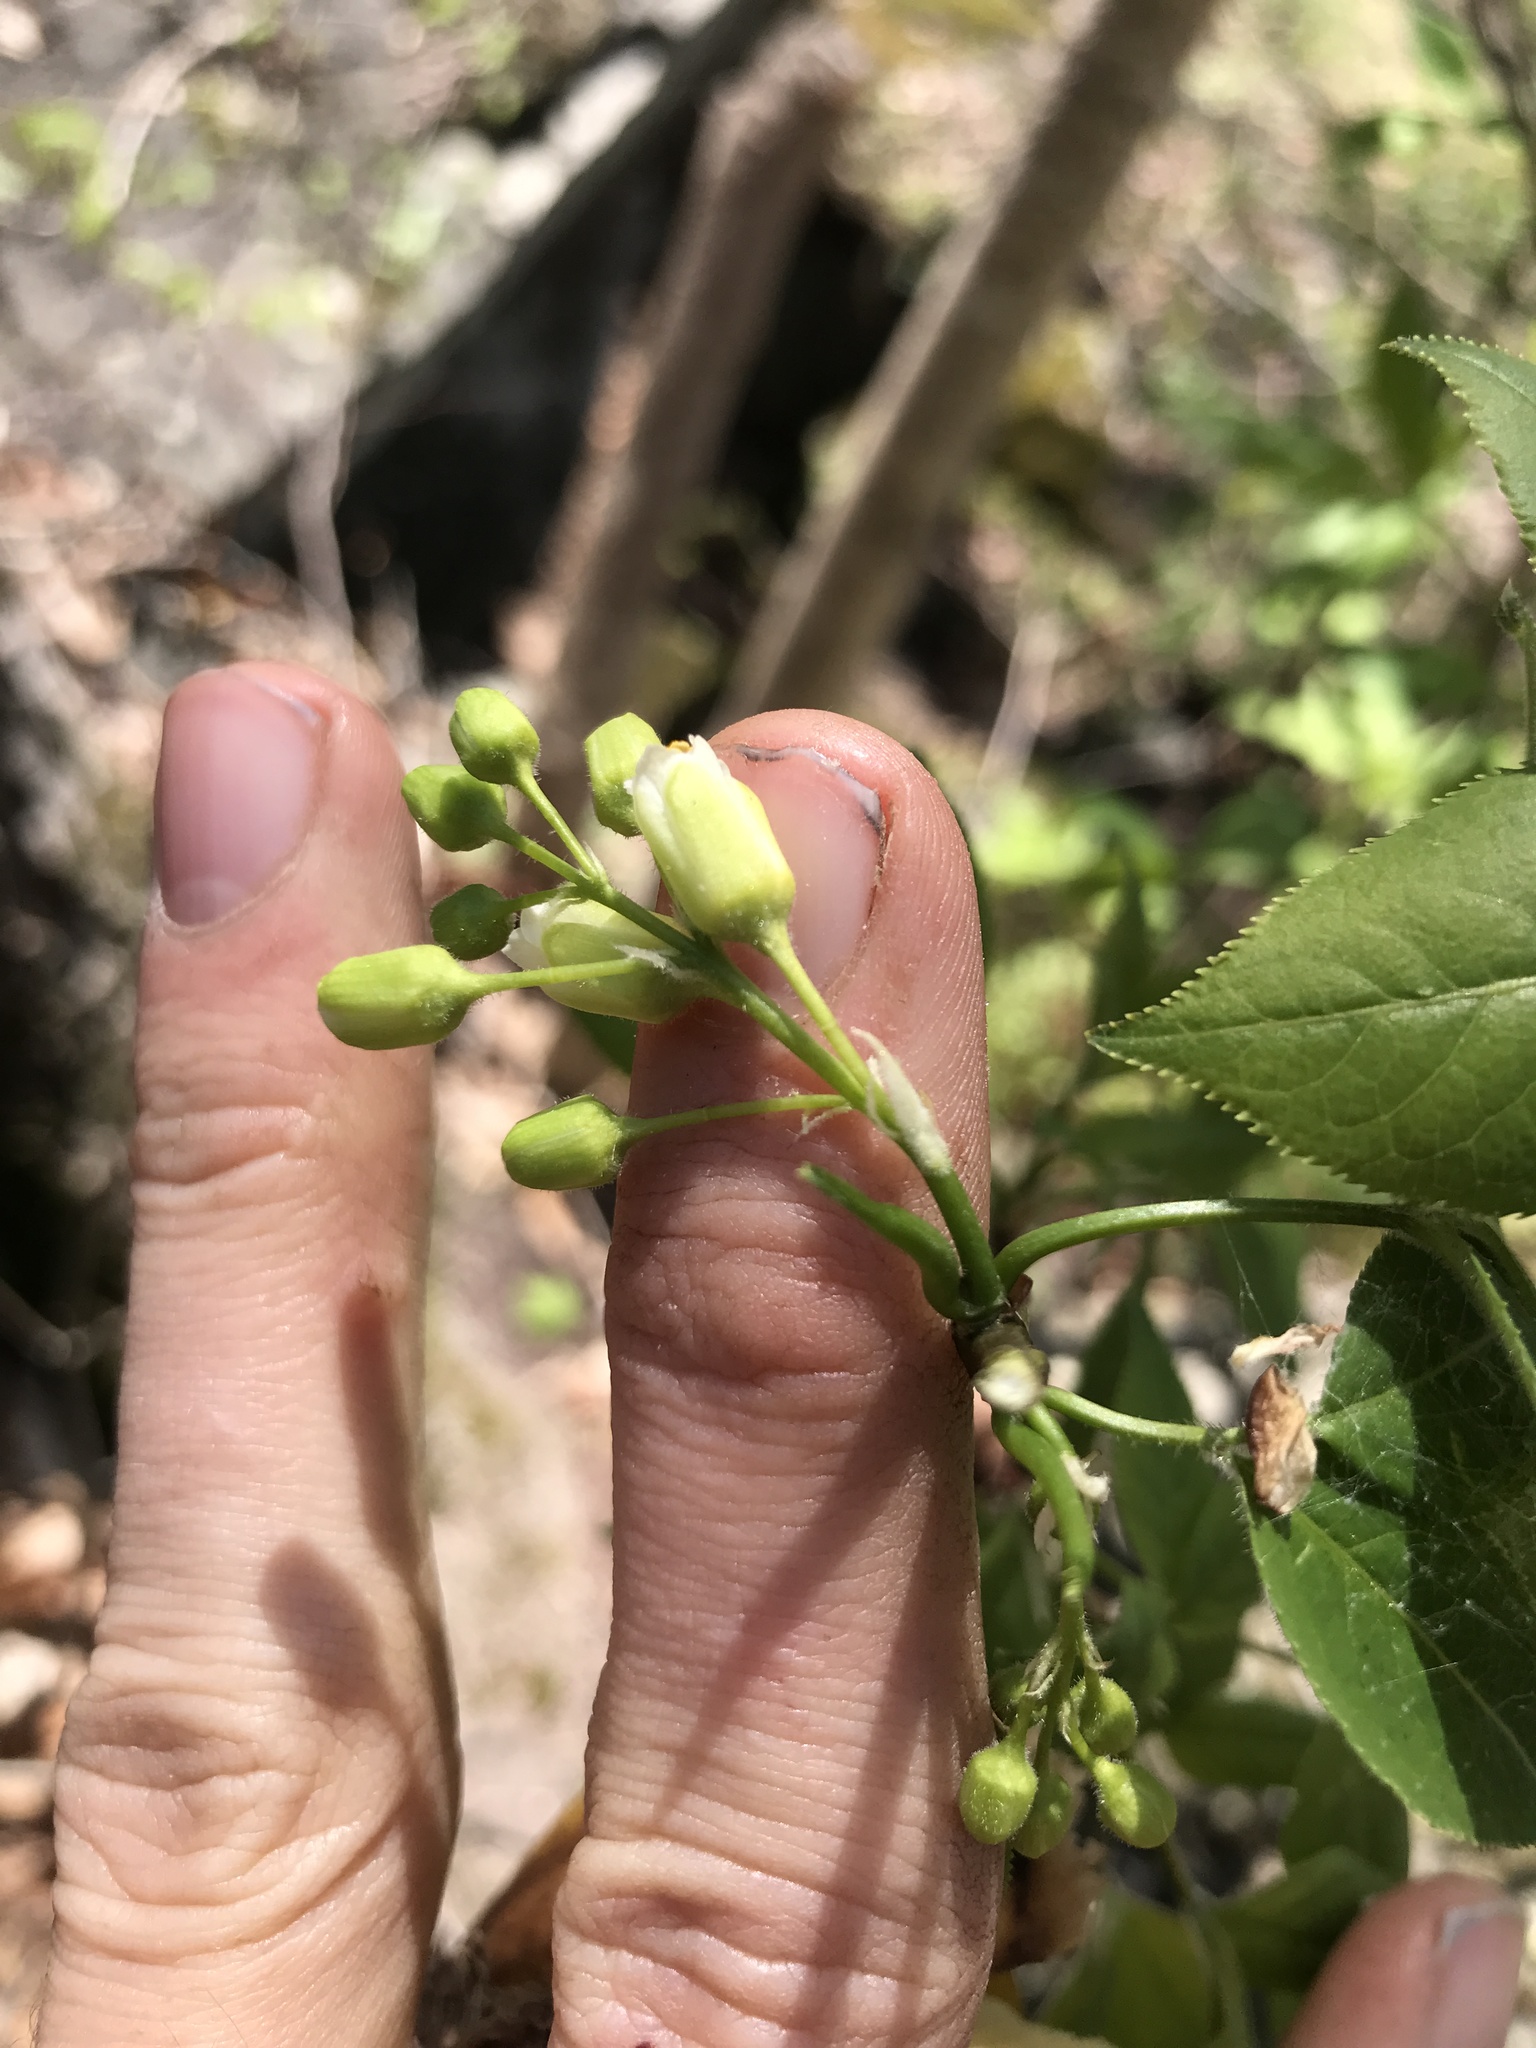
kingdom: Plantae
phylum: Tracheophyta
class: Magnoliopsida
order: Crossosomatales
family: Staphyleaceae
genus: Staphylea
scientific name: Staphylea trifolia
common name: American bladdernut
